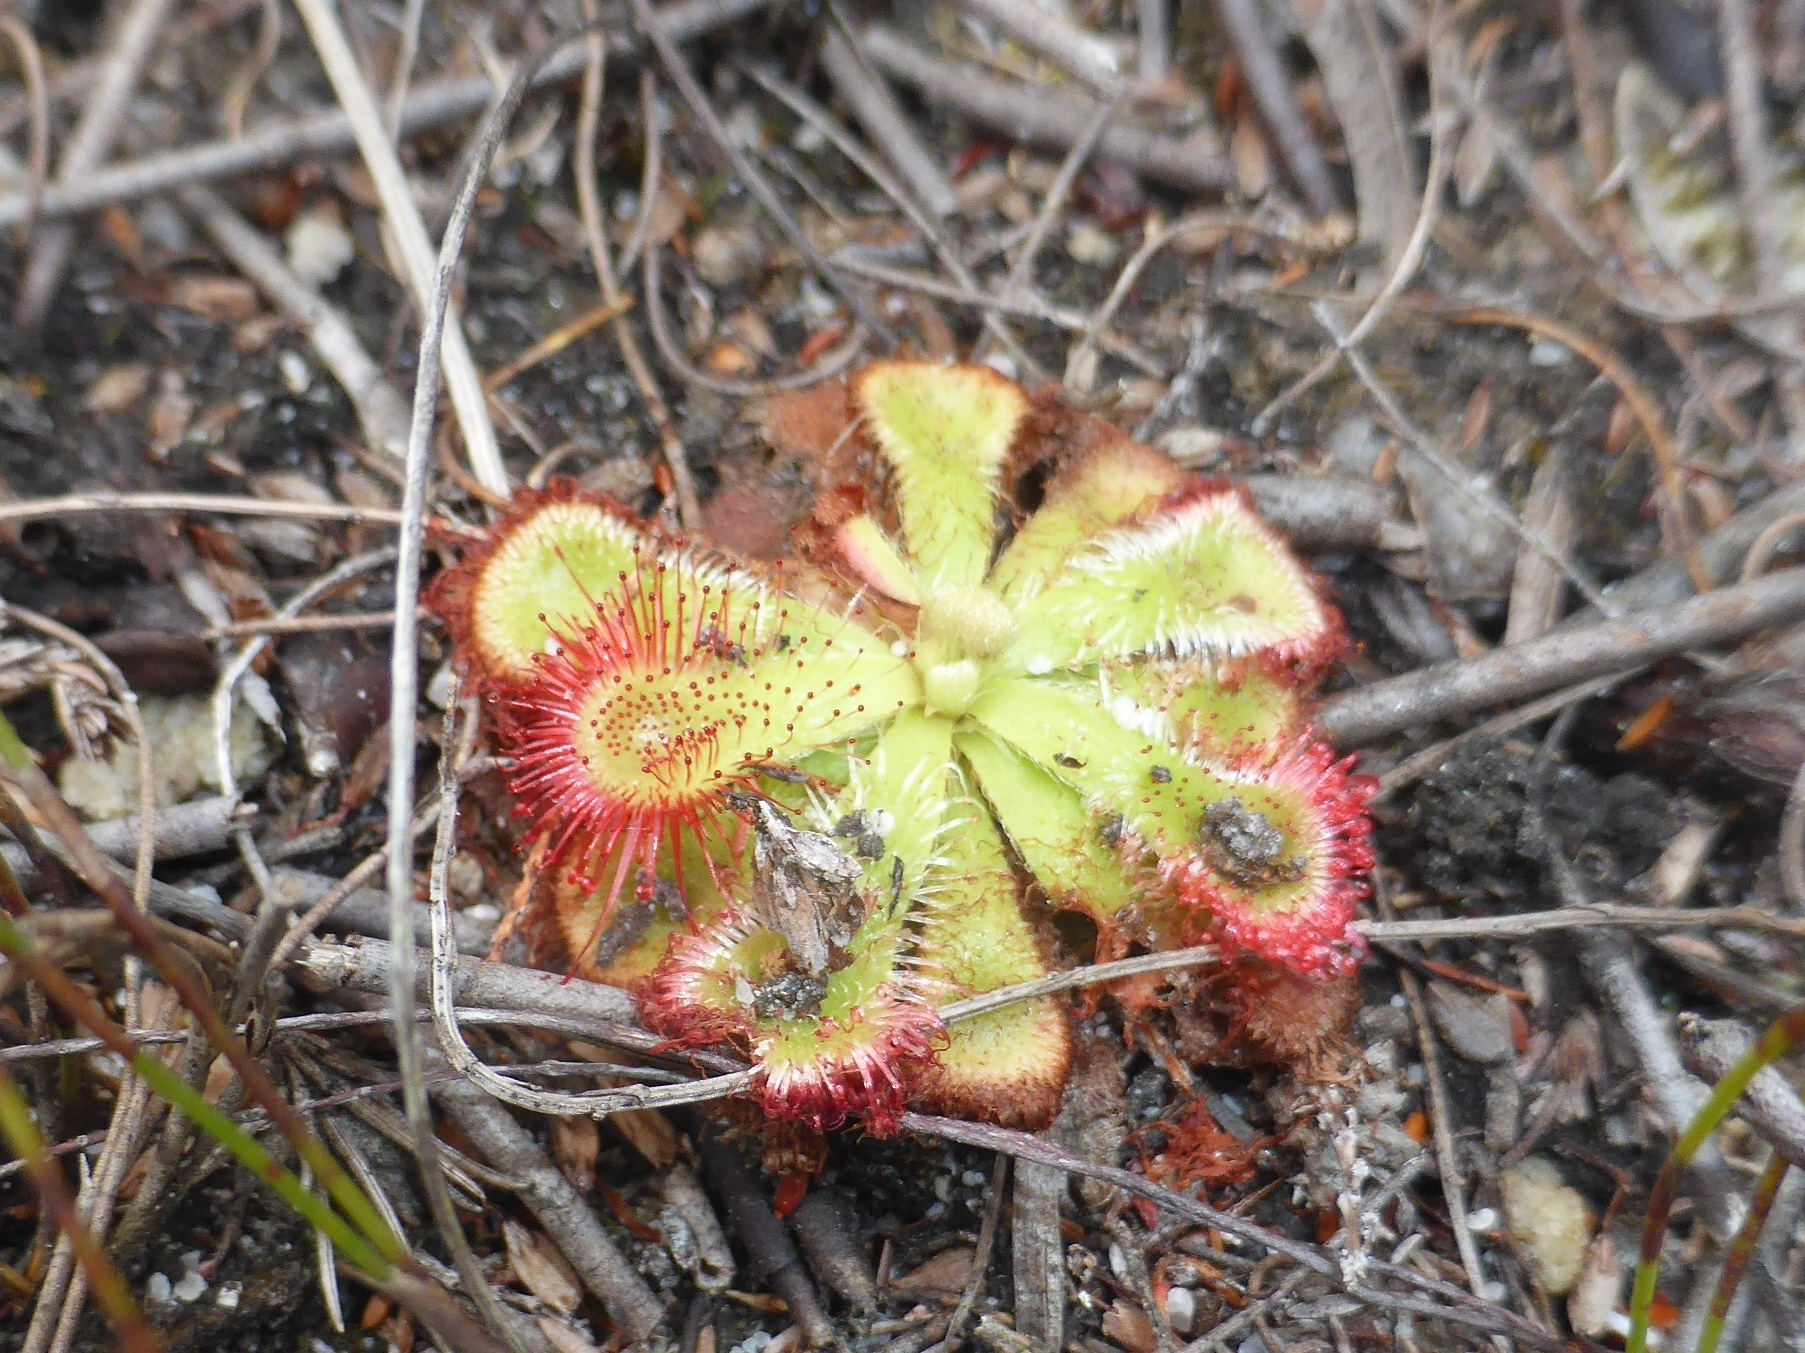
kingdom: Plantae
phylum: Tracheophyta
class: Magnoliopsida
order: Caryophyllales
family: Droseraceae
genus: Drosera
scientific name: Drosera xerophila
